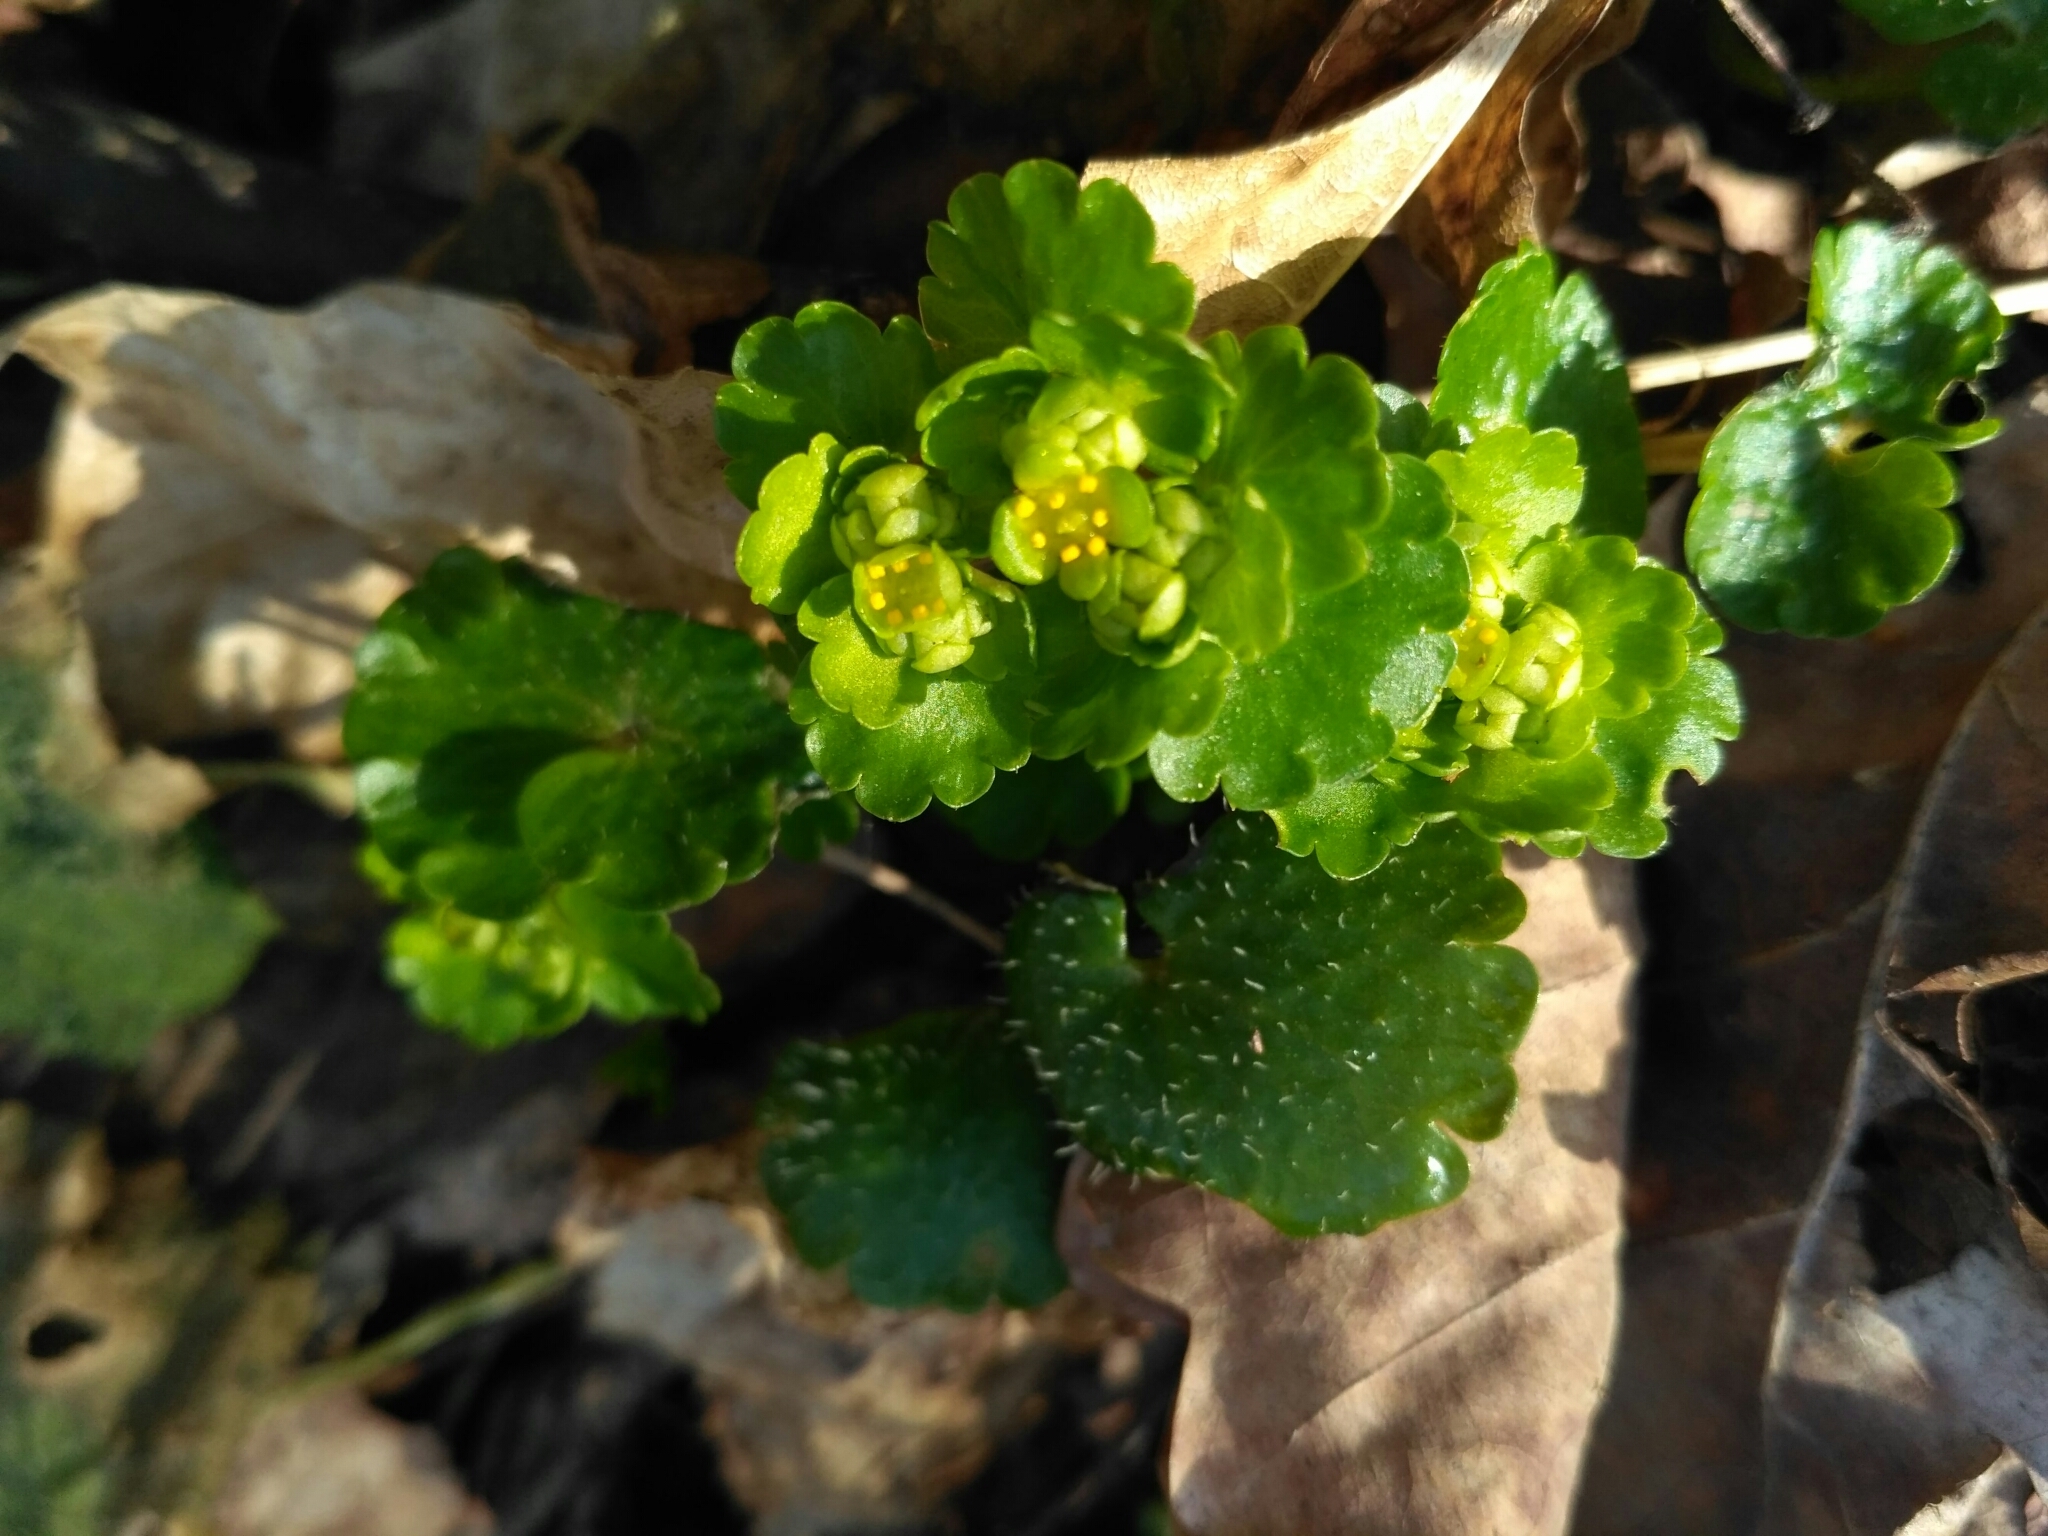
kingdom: Plantae
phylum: Tracheophyta
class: Magnoliopsida
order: Saxifragales
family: Saxifragaceae
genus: Chrysosplenium
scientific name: Chrysosplenium alternifolium
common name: Alternate-leaved golden-saxifrage
